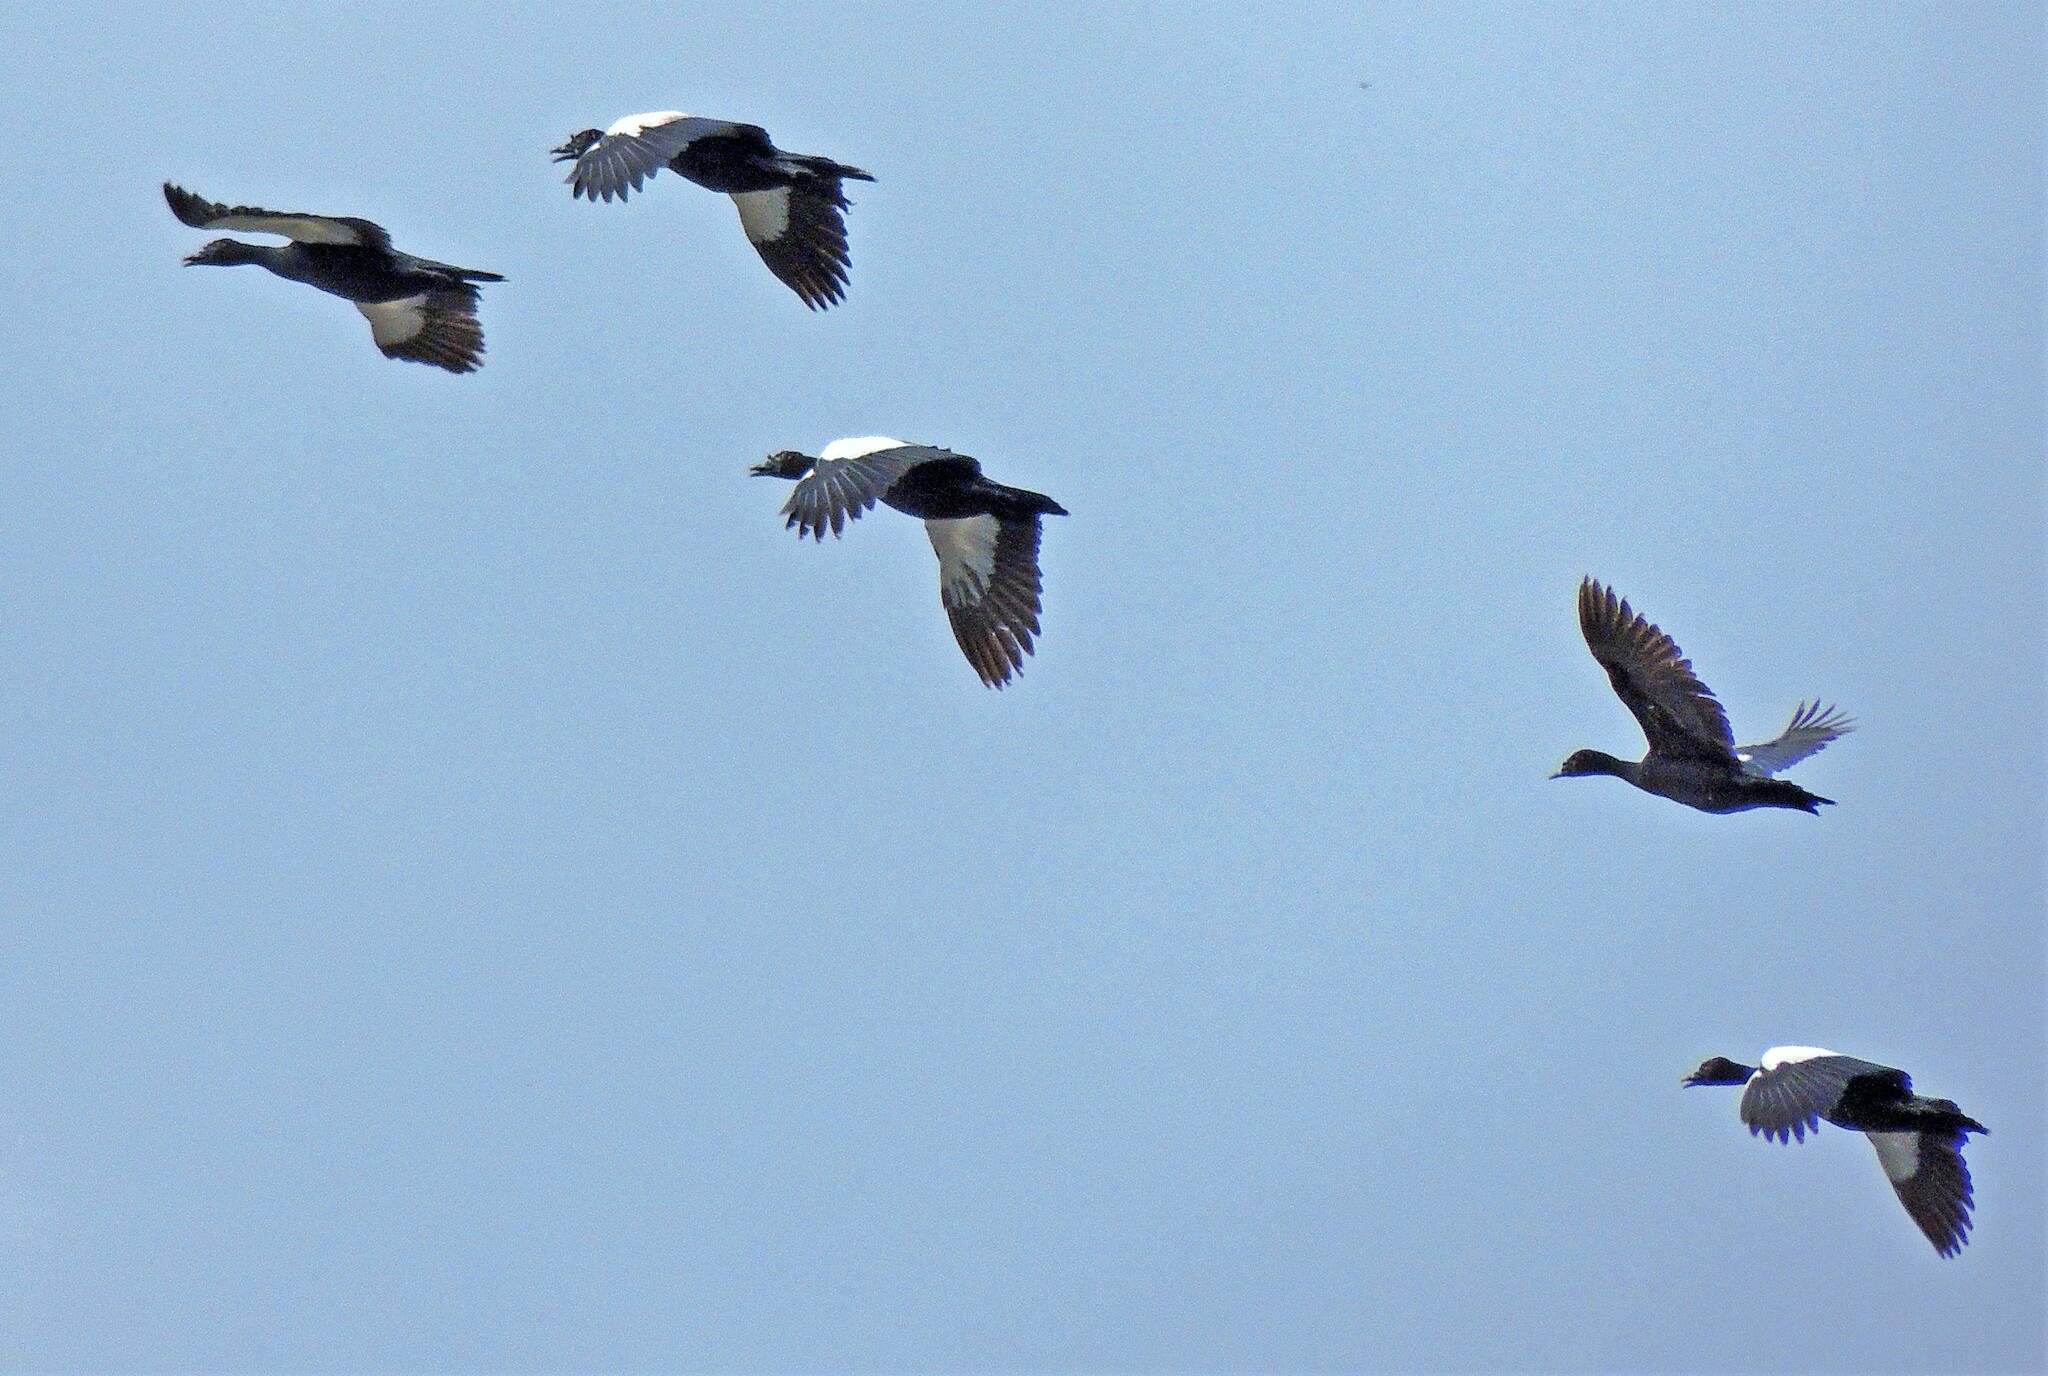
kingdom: Animalia
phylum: Chordata
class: Aves
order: Anseriformes
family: Anatidae
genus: Cairina
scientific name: Cairina moschata
